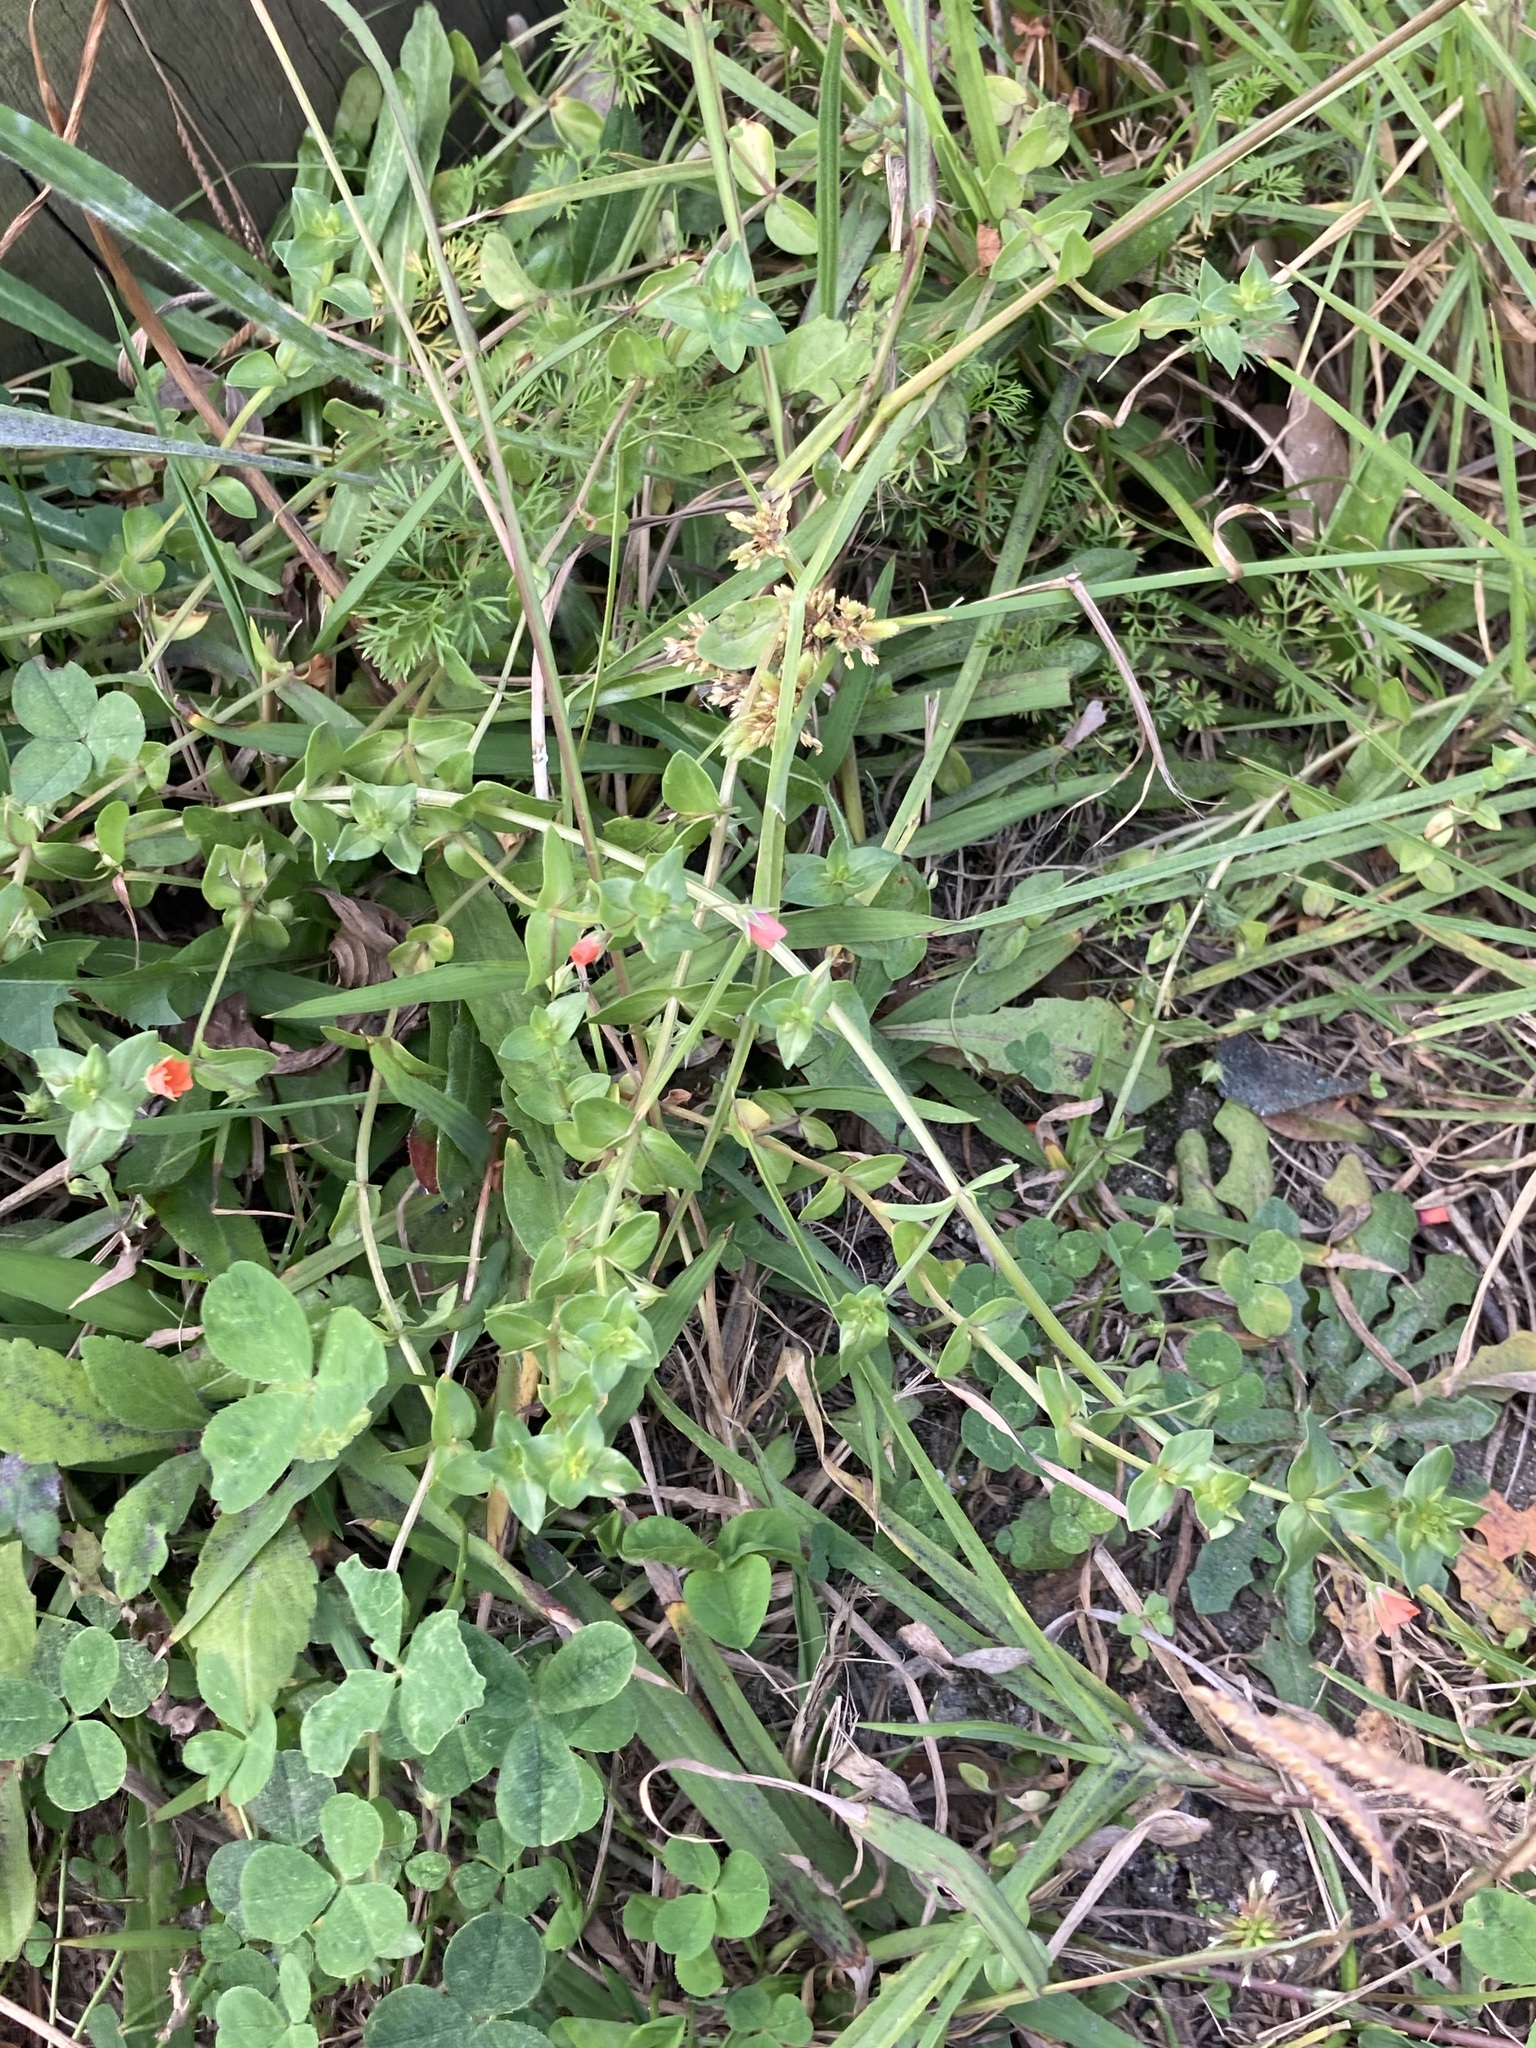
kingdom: Plantae
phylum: Tracheophyta
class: Magnoliopsida
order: Ericales
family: Primulaceae
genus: Lysimachia
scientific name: Lysimachia arvensis
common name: Scarlet pimpernel
